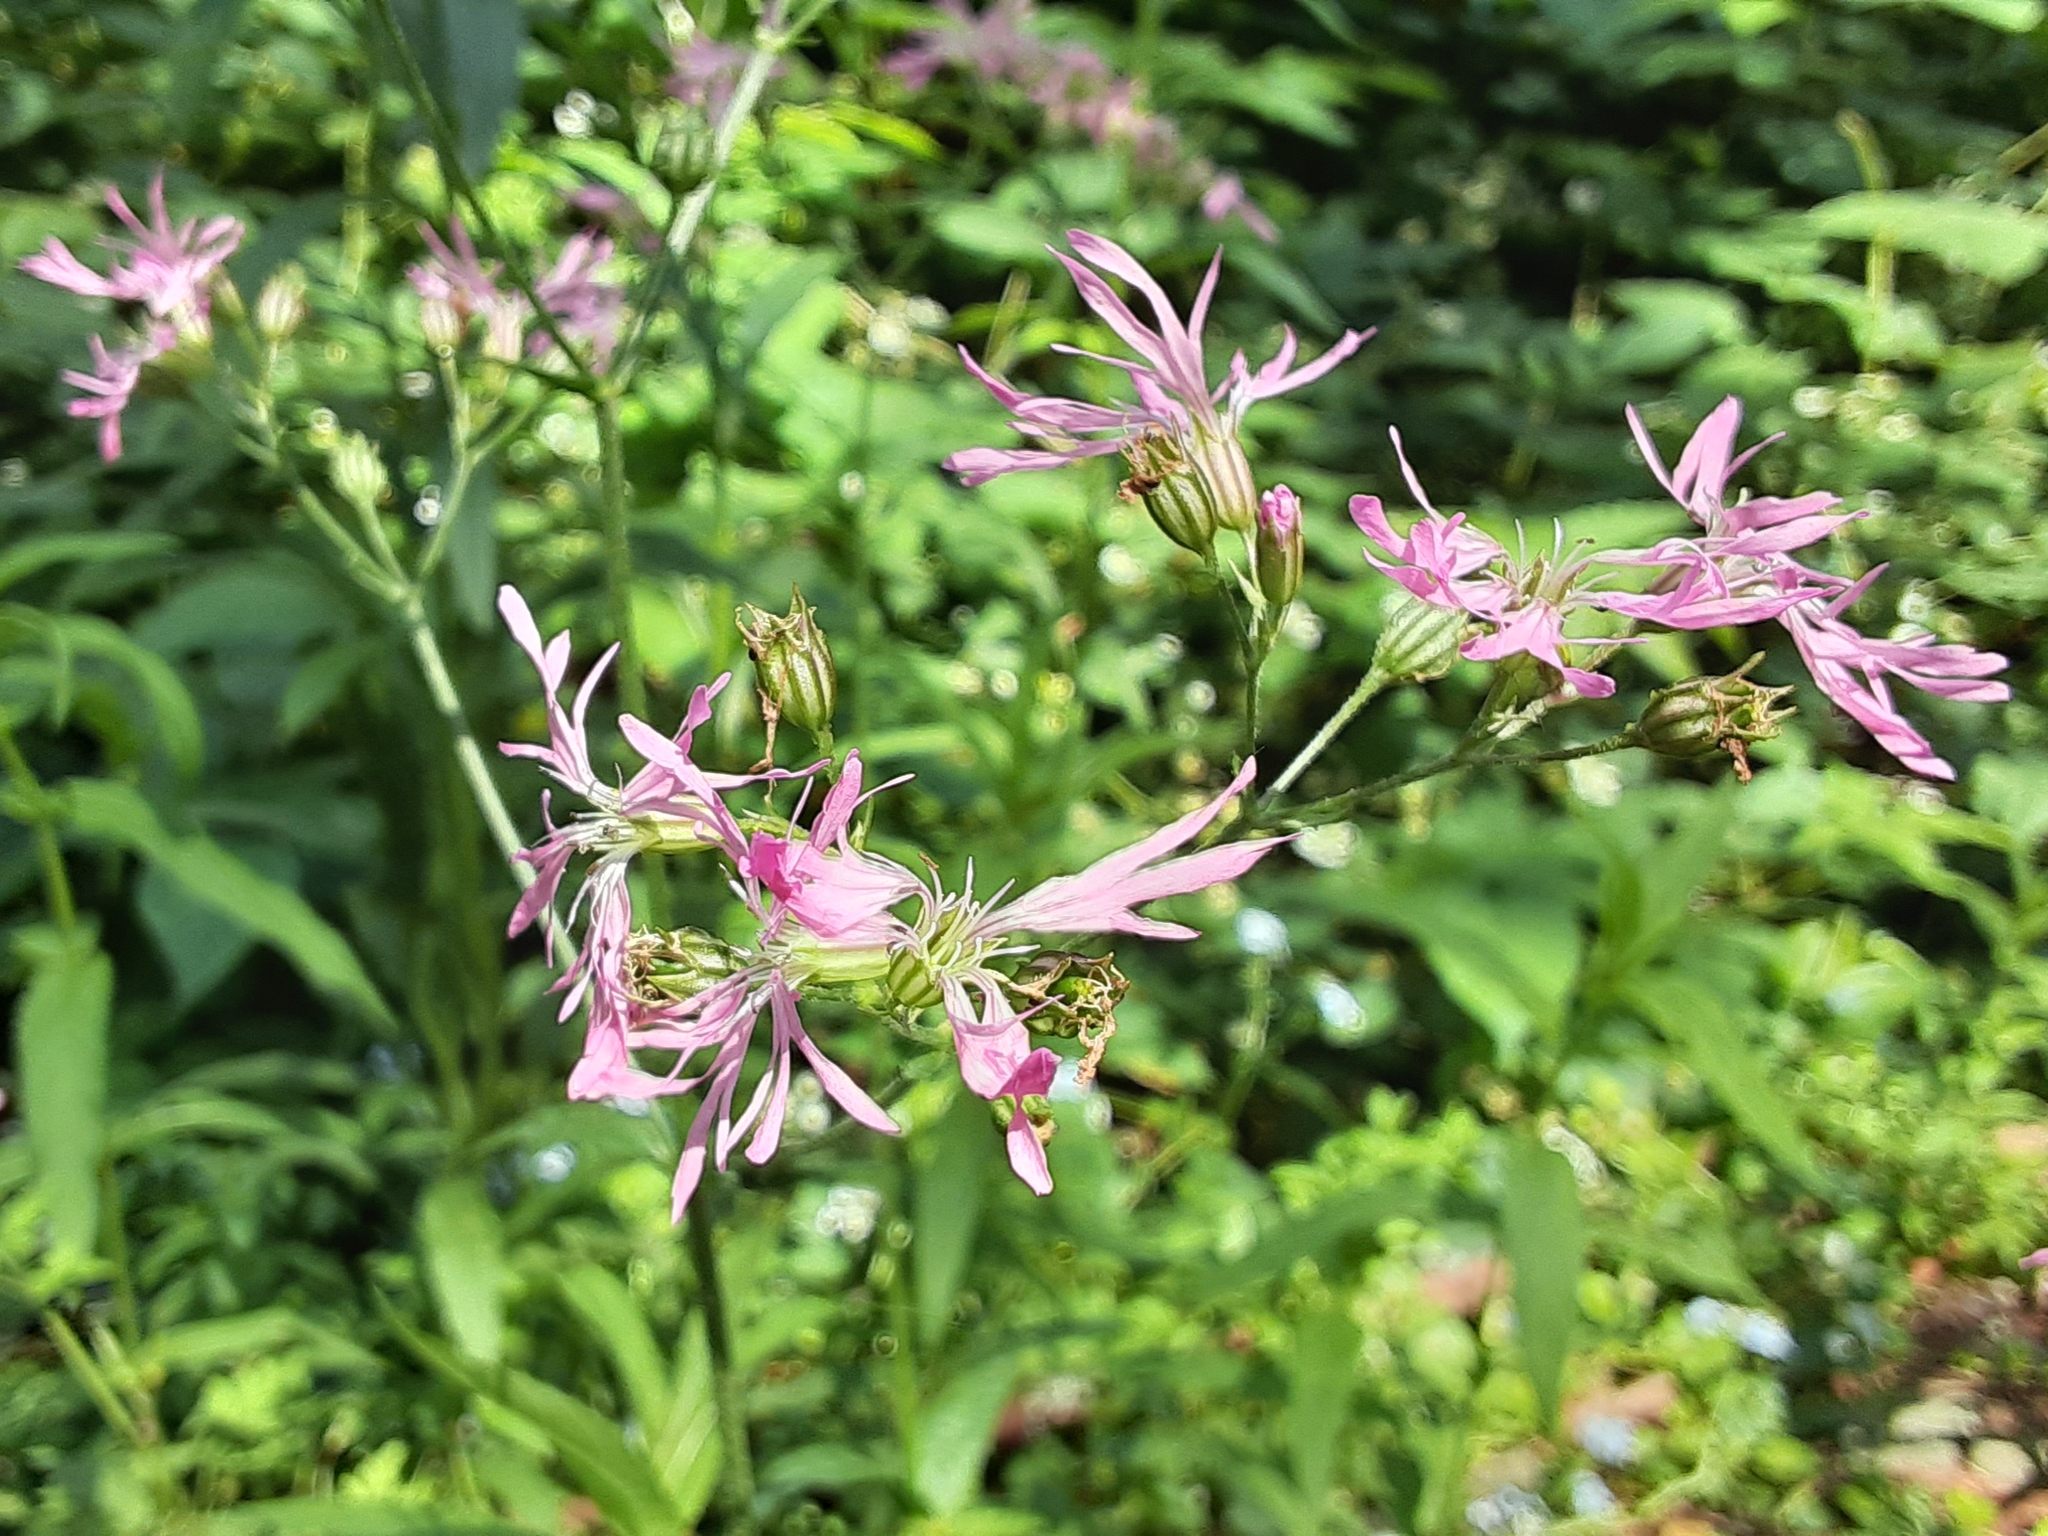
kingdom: Plantae
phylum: Tracheophyta
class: Magnoliopsida
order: Caryophyllales
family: Caryophyllaceae
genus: Silene
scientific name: Silene flos-cuculi
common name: Ragged-robin
